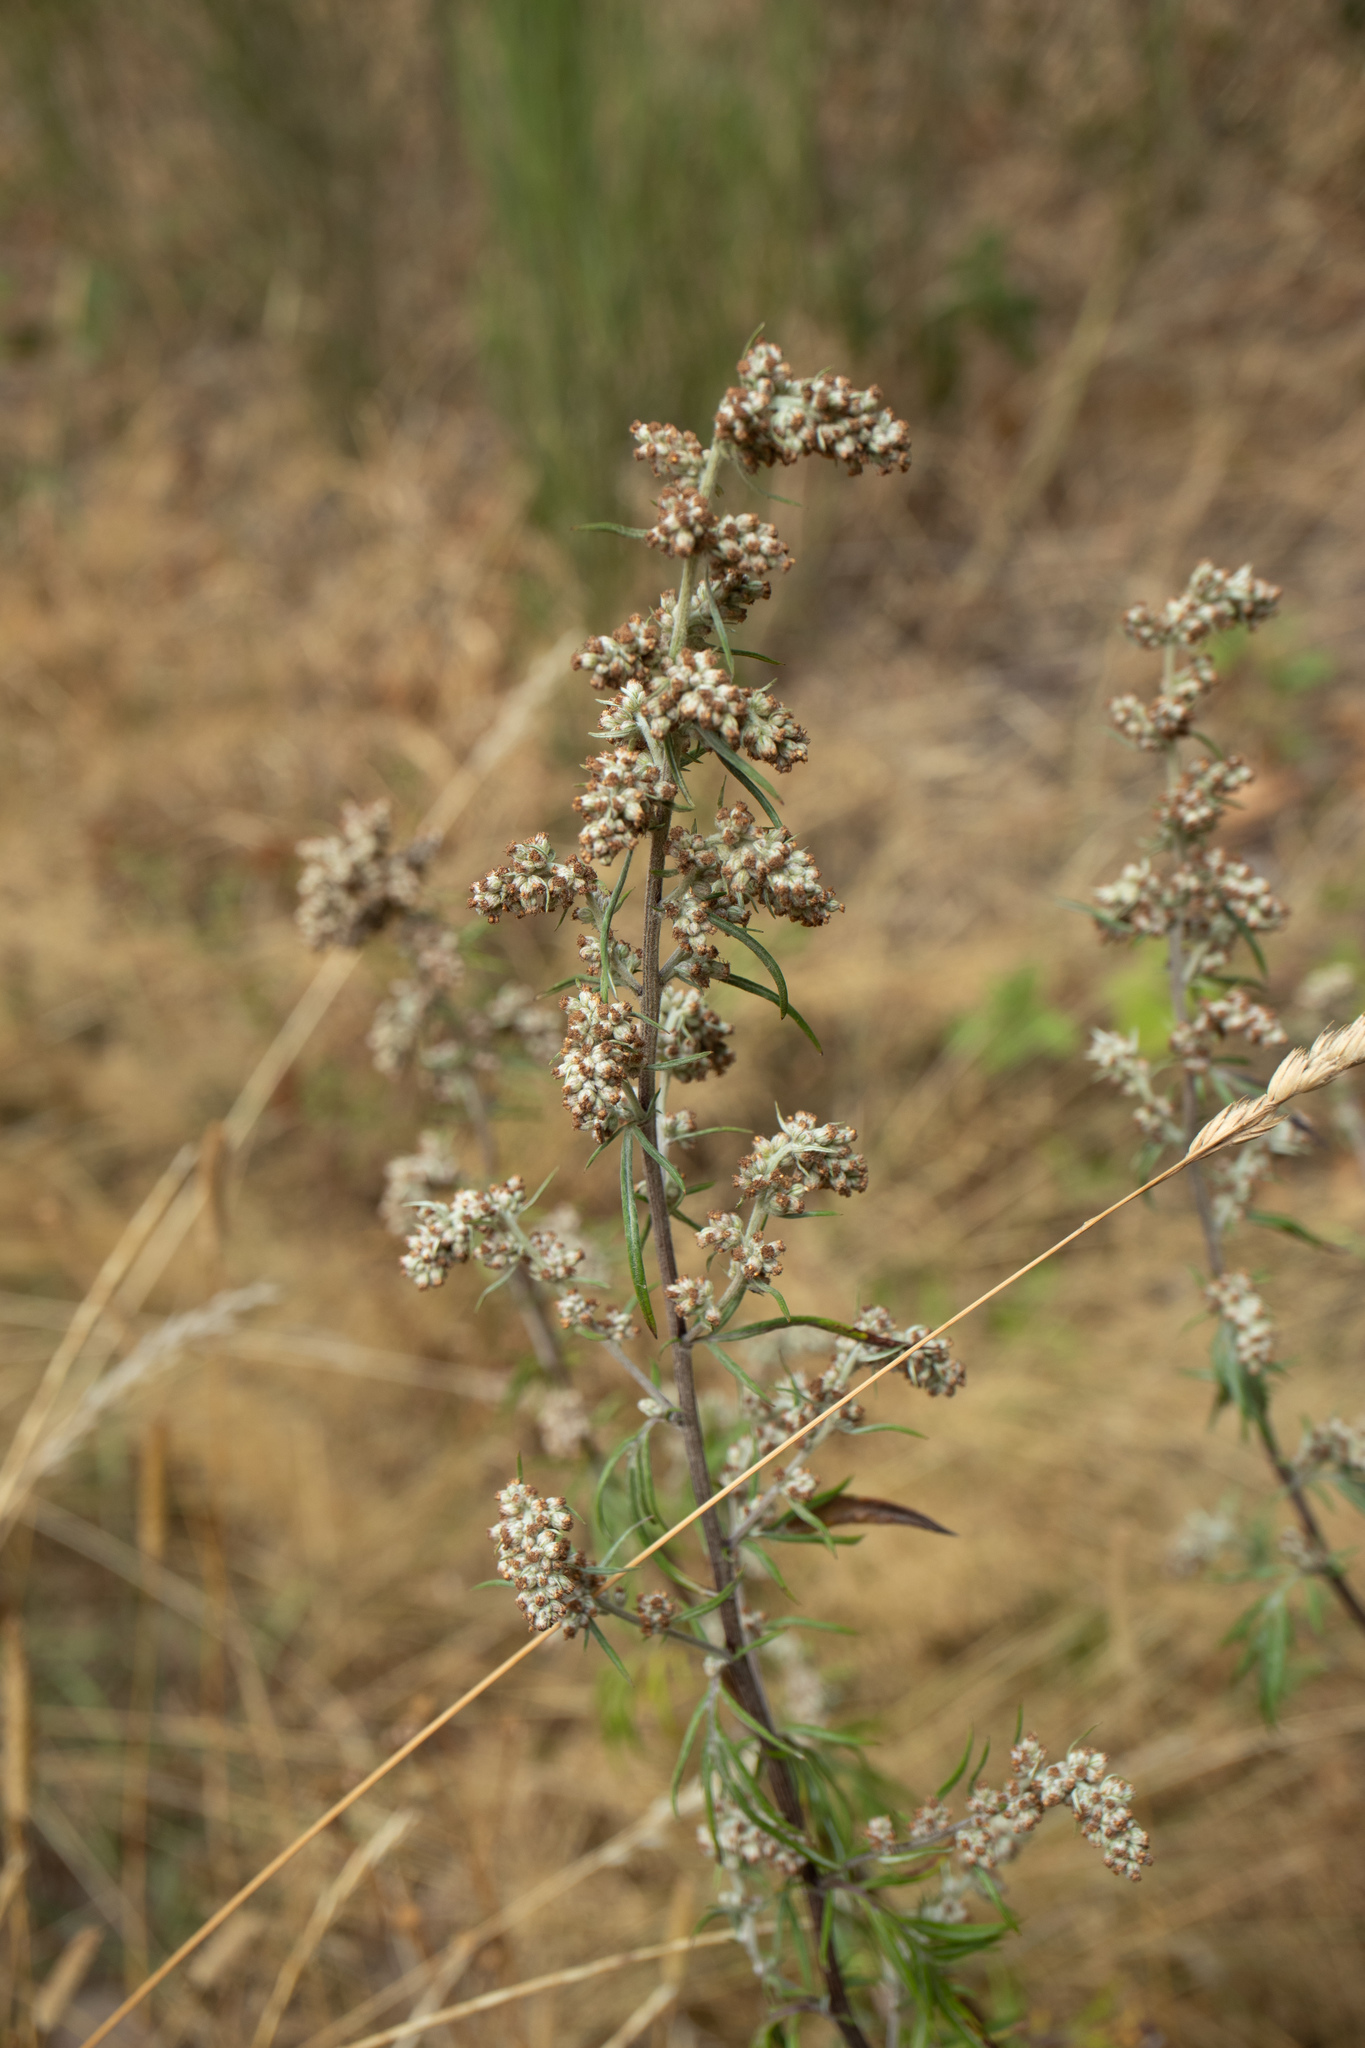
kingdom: Plantae
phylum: Tracheophyta
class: Magnoliopsida
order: Asterales
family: Asteraceae
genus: Artemisia
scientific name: Artemisia vulgaris
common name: Mugwort
